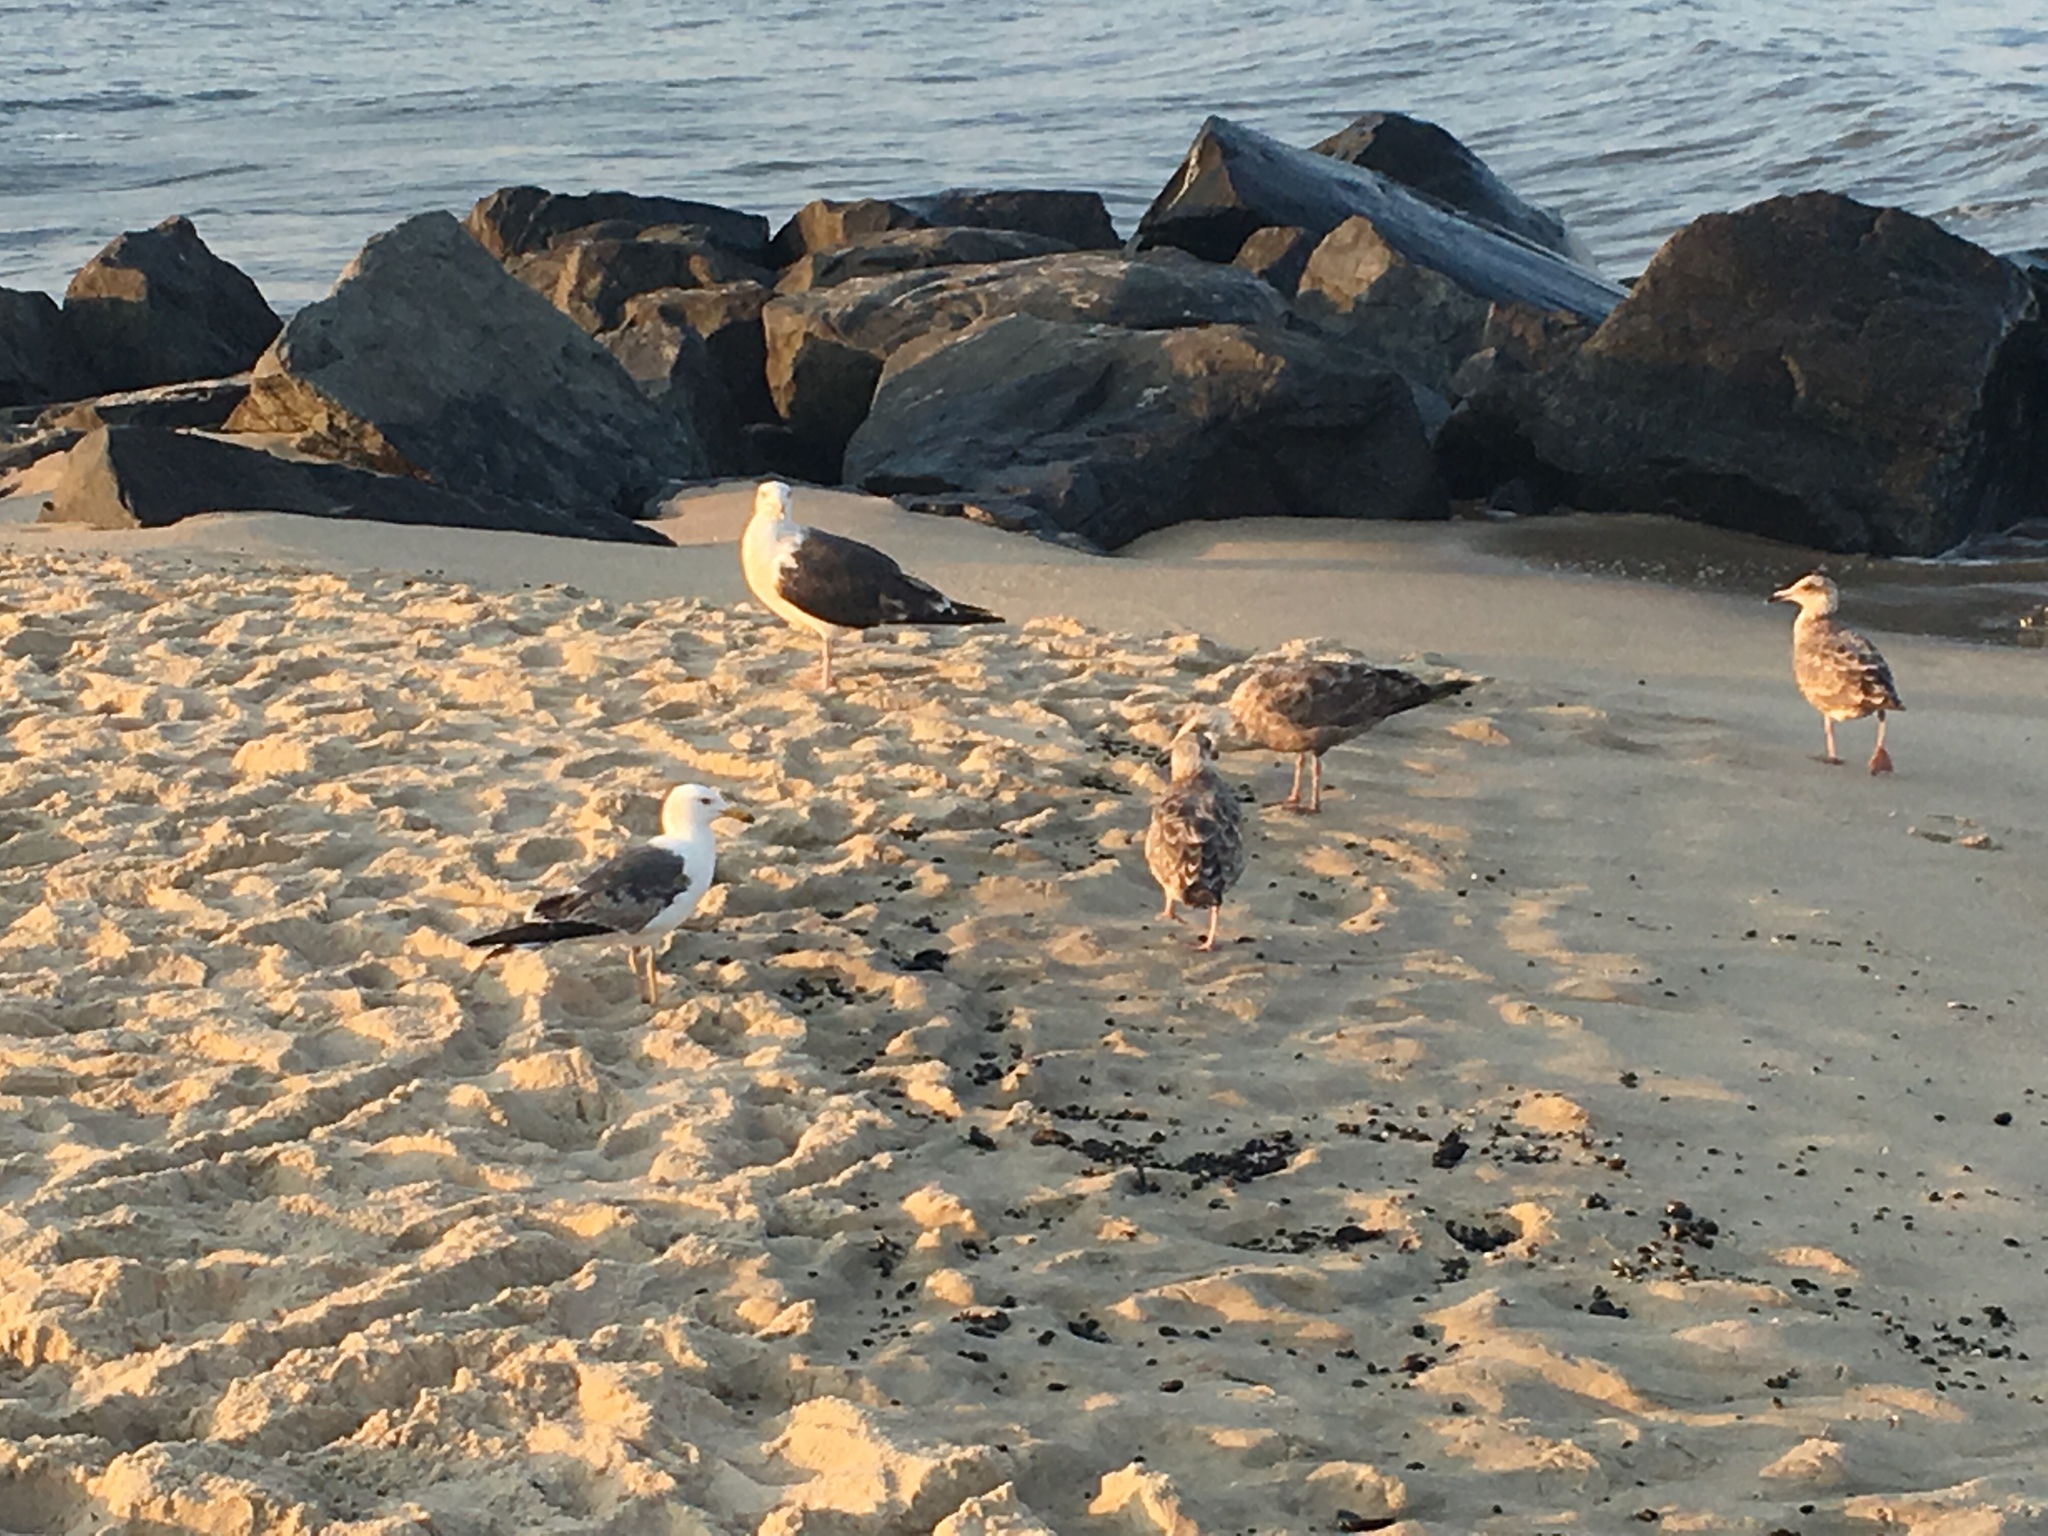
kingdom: Animalia
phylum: Chordata
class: Aves
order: Charadriiformes
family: Laridae
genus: Larus
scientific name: Larus argentatus
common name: Herring gull
